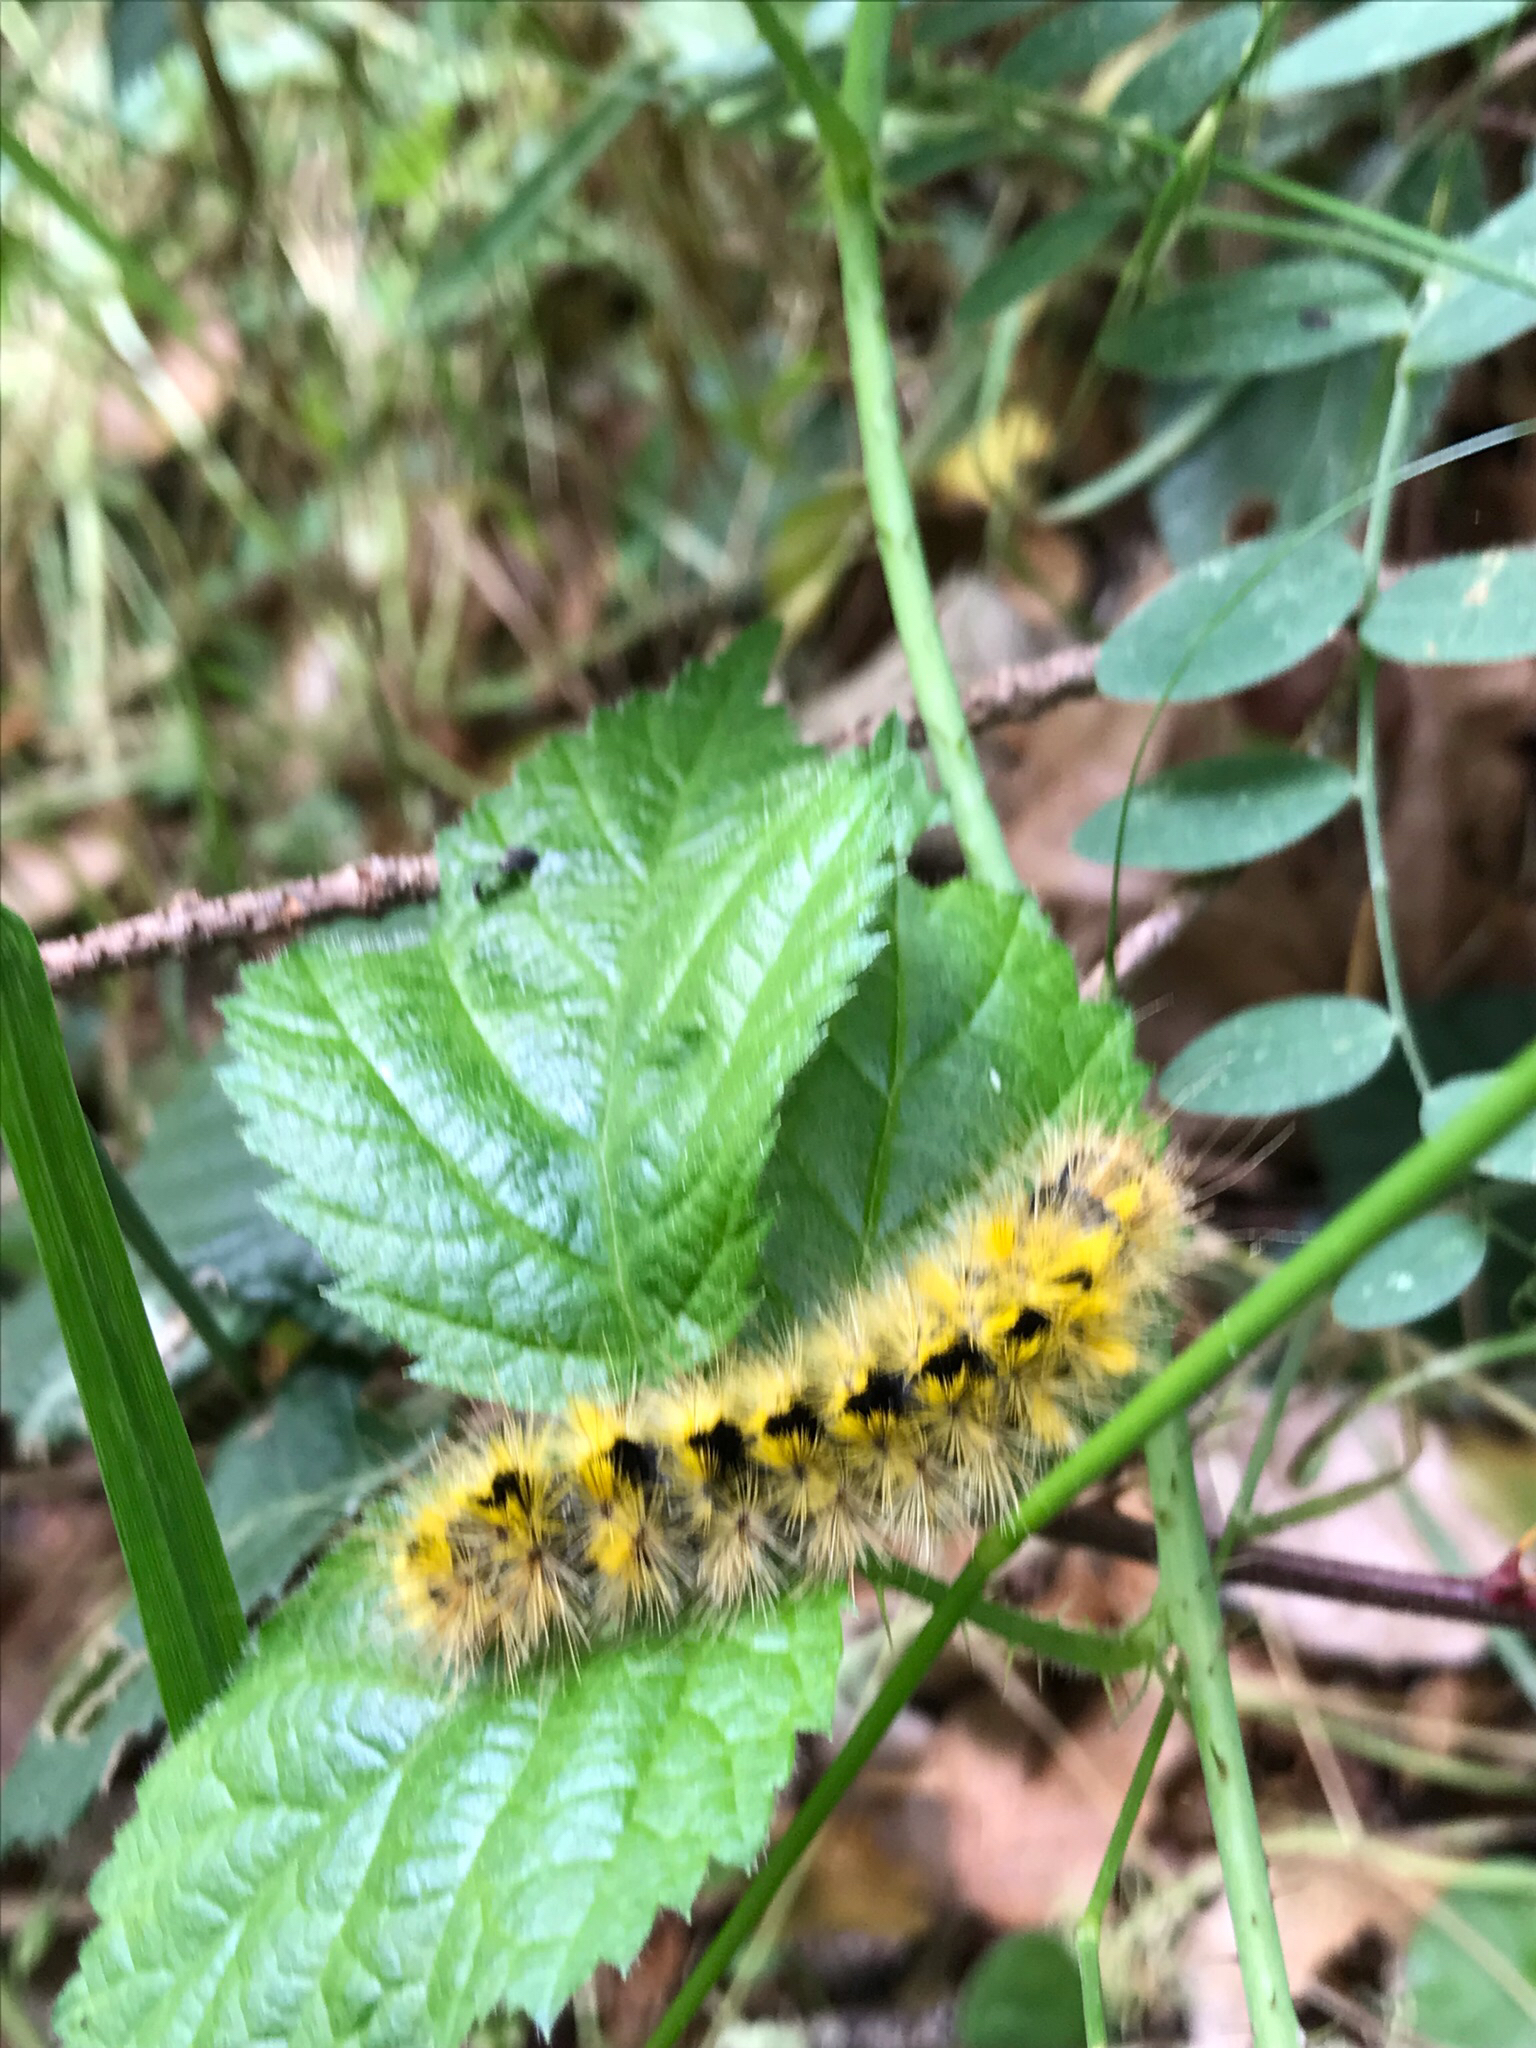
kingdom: Animalia
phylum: Arthropoda
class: Insecta
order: Lepidoptera
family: Erebidae
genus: Lophocampa
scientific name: Lophocampa argentata
